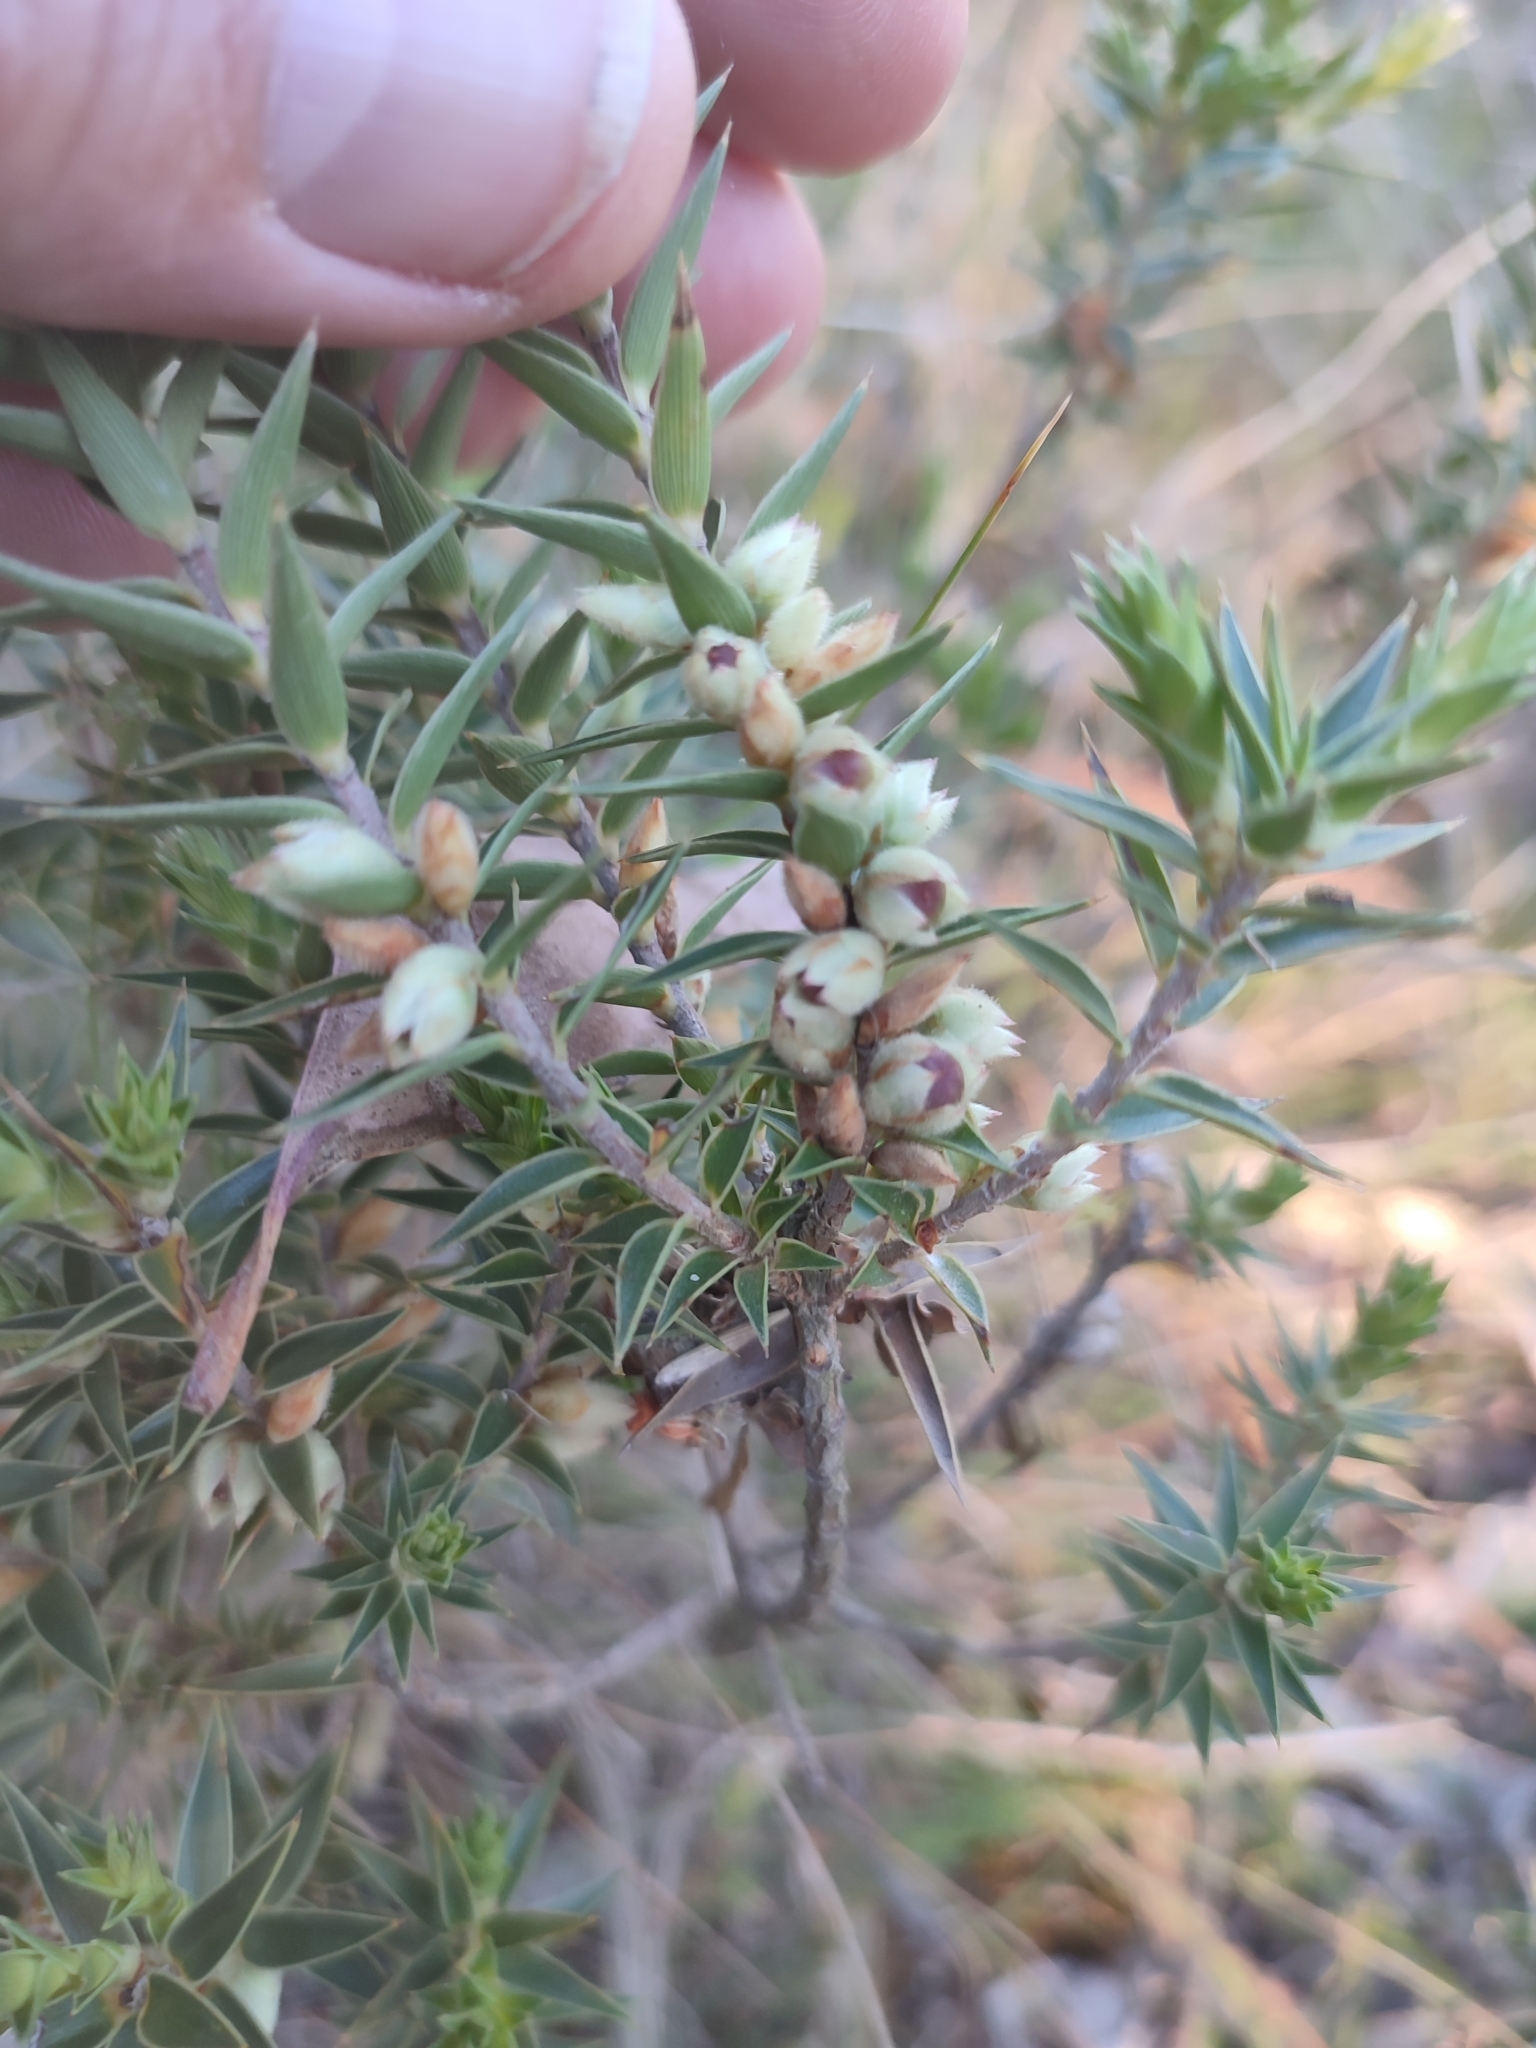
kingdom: Plantae
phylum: Tracheophyta
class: Magnoliopsida
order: Ericales
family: Ericaceae
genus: Melichrus
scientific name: Melichrus urceolatus
